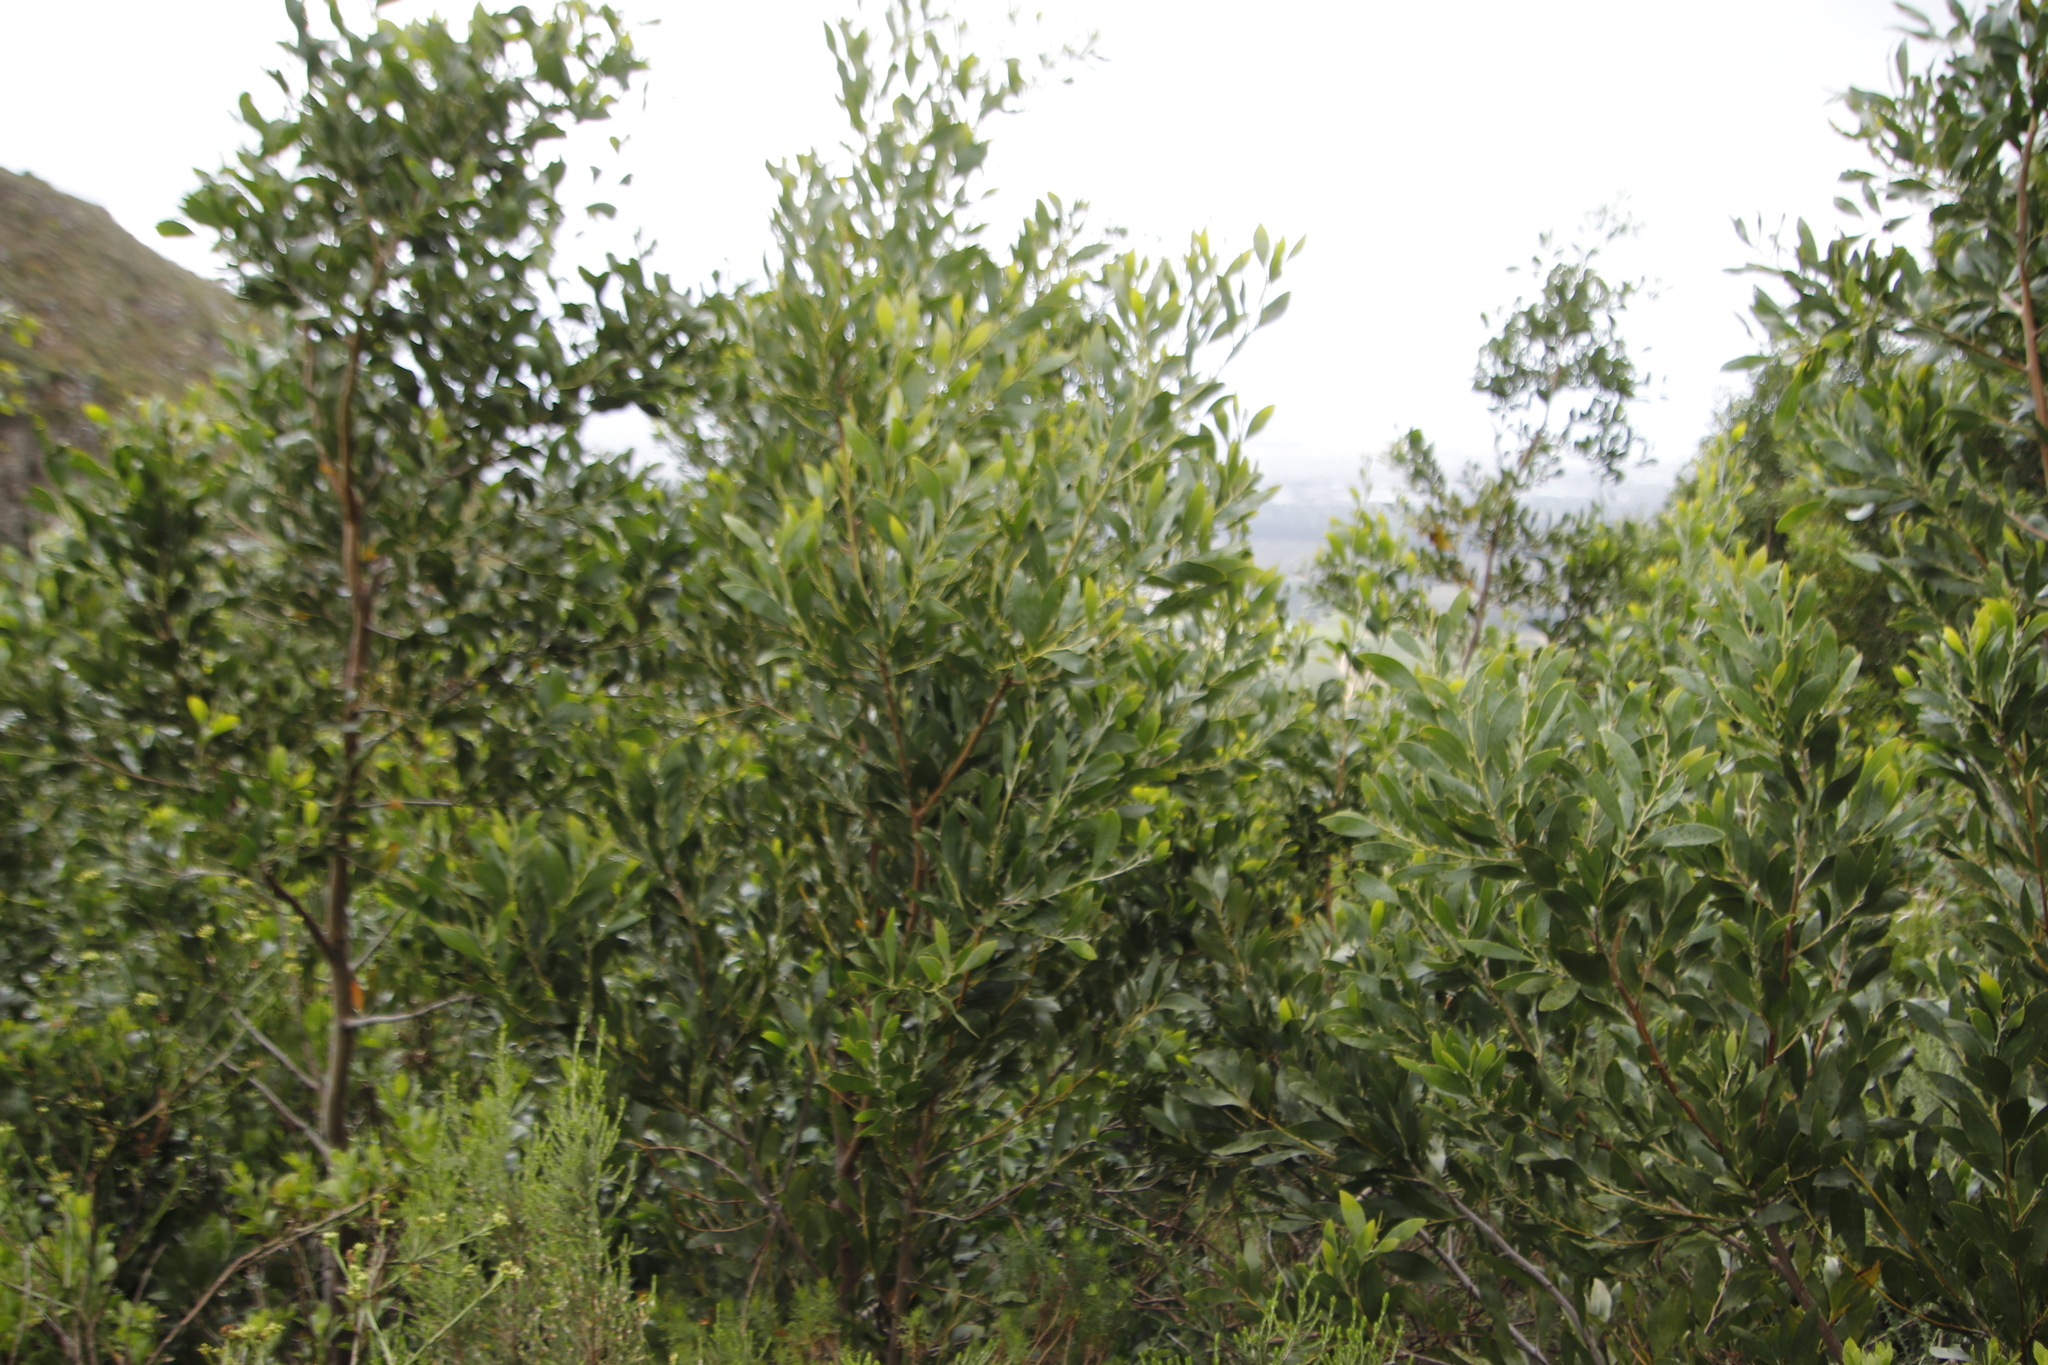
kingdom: Plantae
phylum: Tracheophyta
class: Magnoliopsida
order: Fabales
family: Fabaceae
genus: Acacia
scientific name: Acacia melanoxylon
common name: Blackwood
